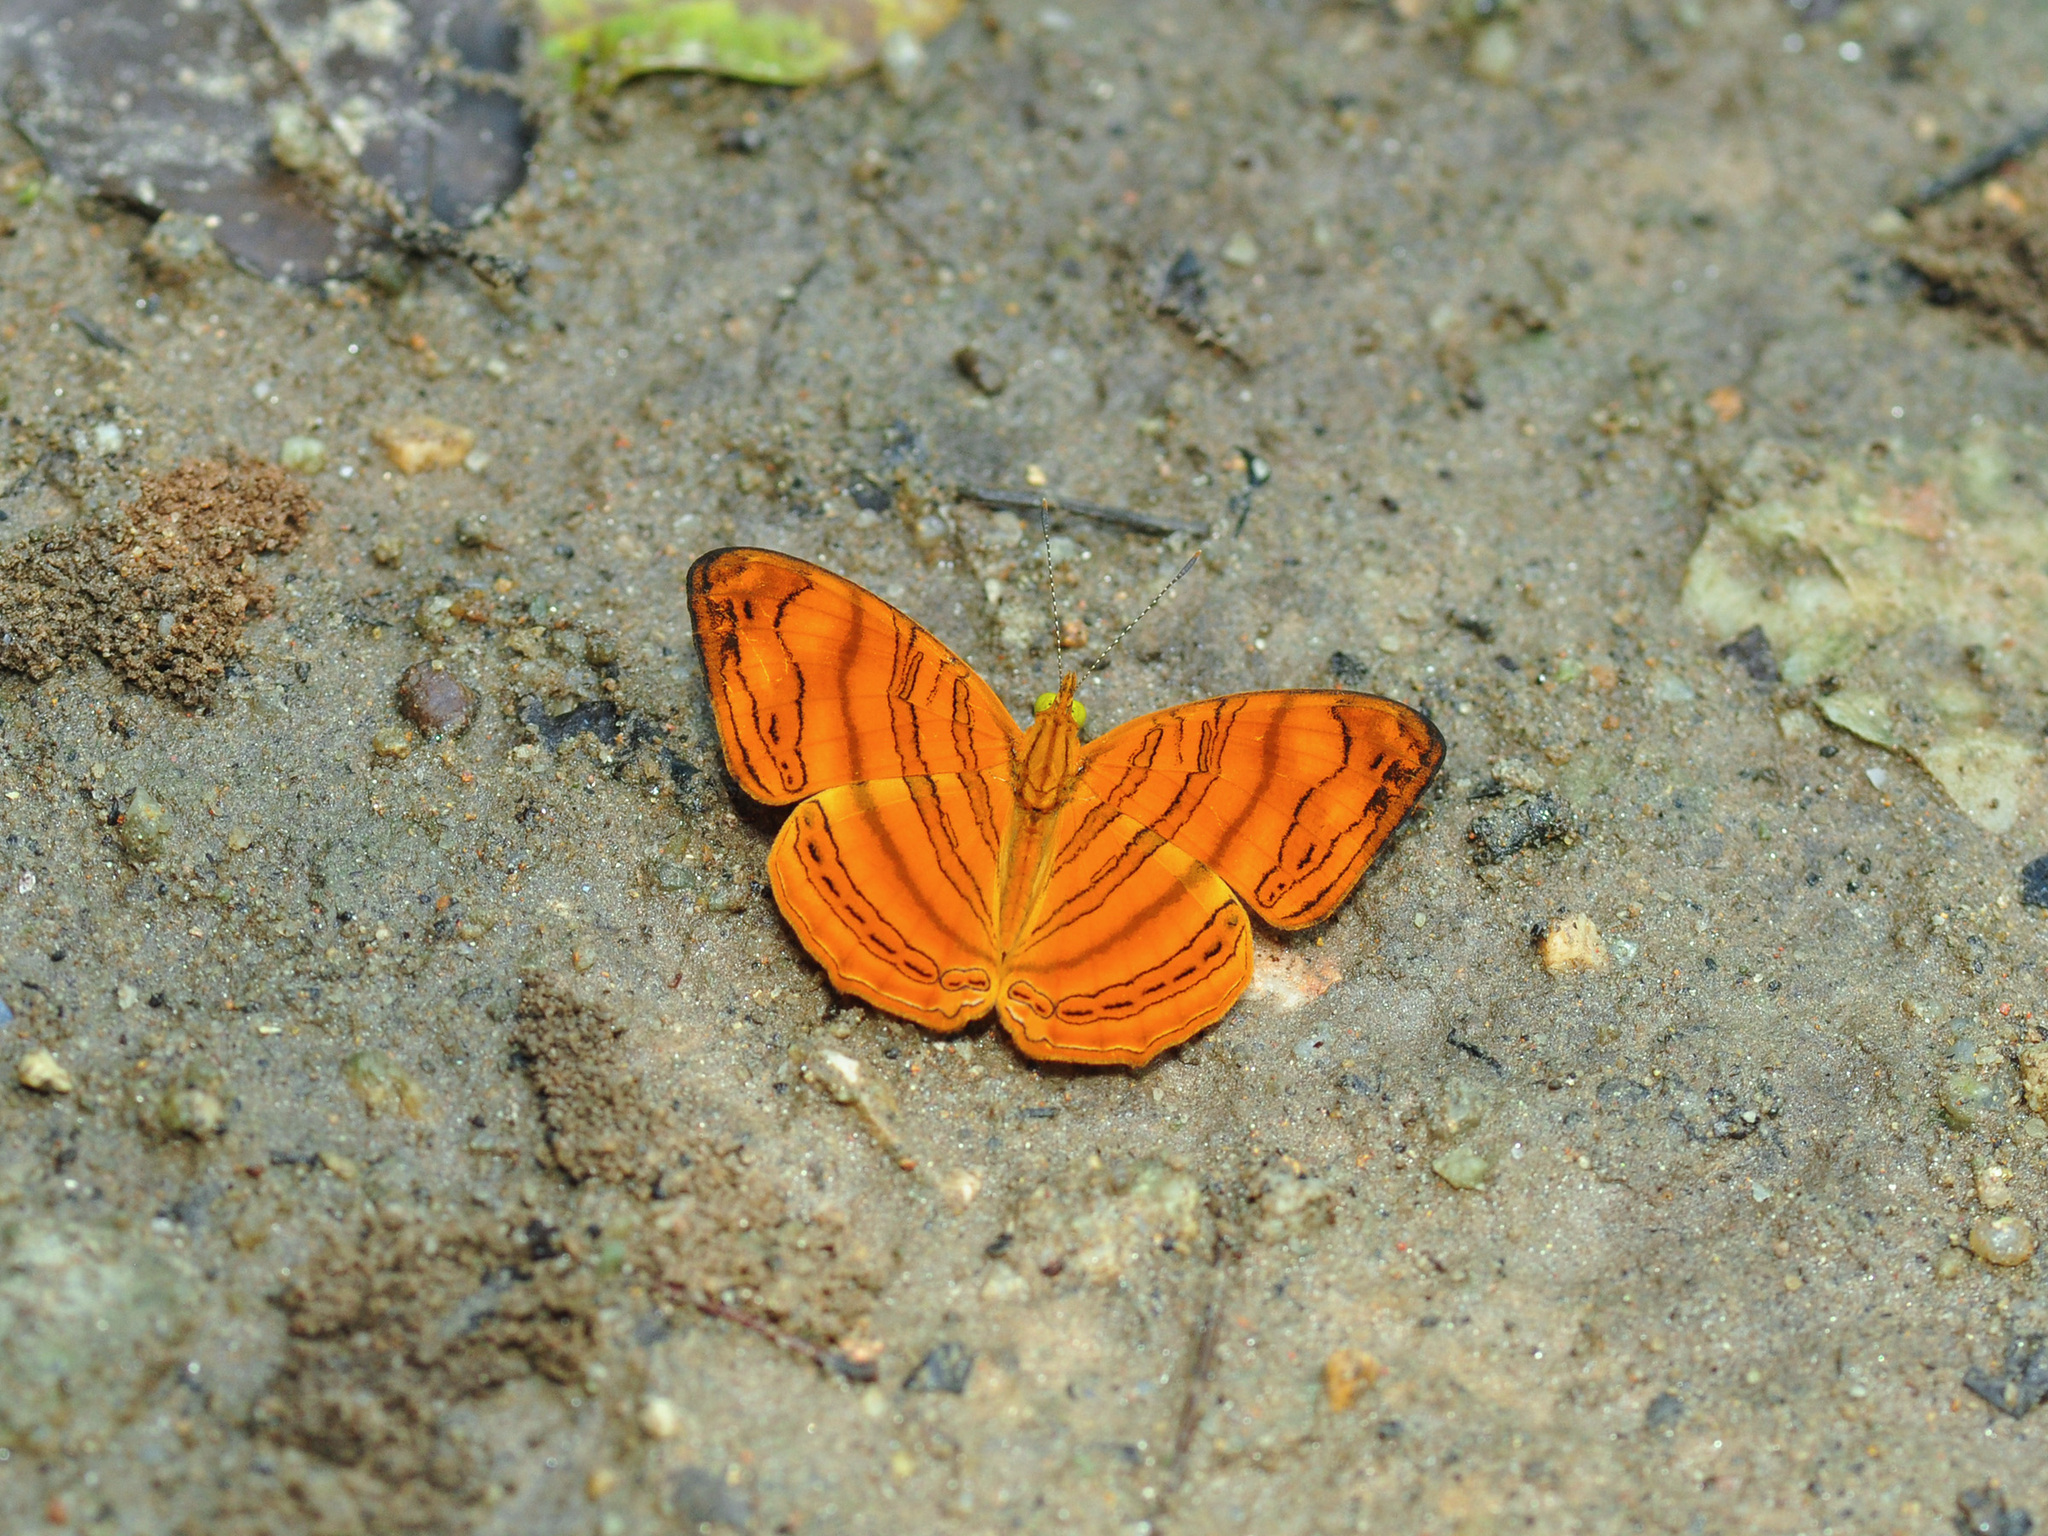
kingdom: Animalia
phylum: Arthropoda
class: Insecta
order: Lepidoptera
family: Nymphalidae
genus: Chersonesia
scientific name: Chersonesia rahria
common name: Wavy maplet
